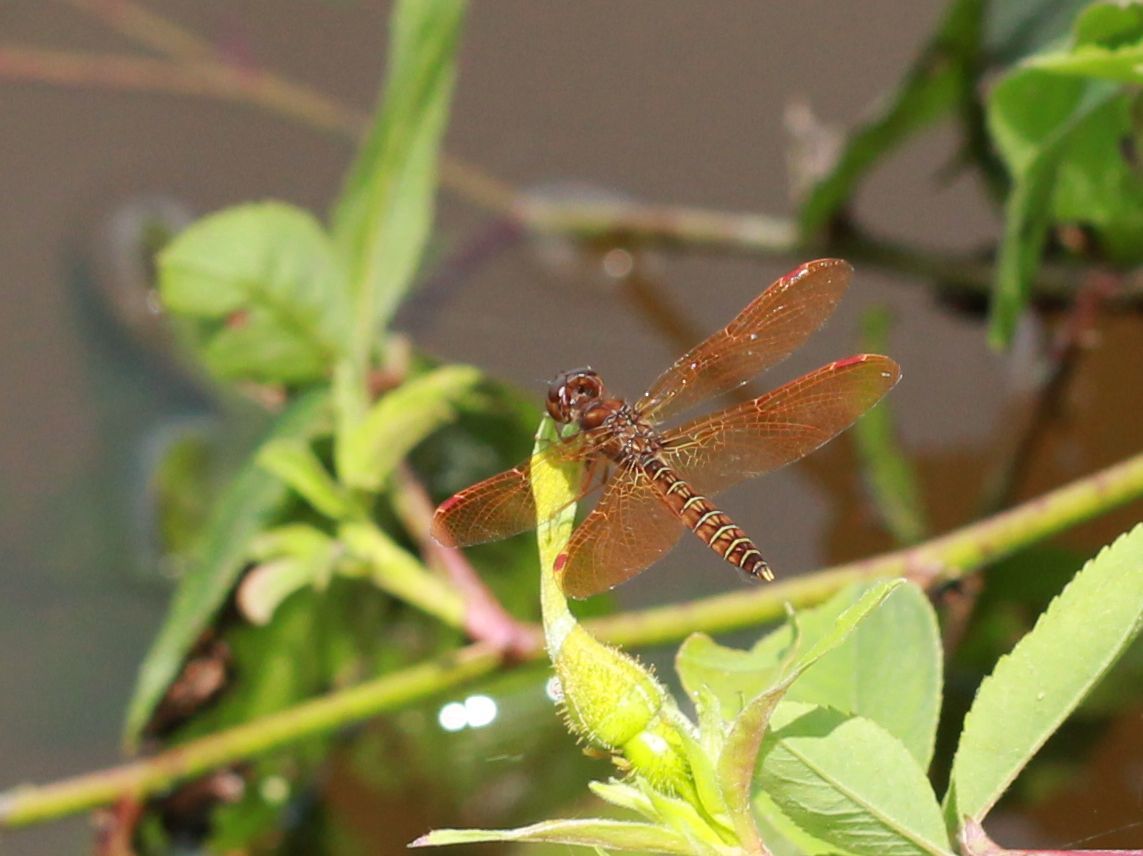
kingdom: Animalia
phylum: Arthropoda
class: Insecta
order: Odonata
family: Libellulidae
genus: Perithemis
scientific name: Perithemis tenera
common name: Eastern amberwing
